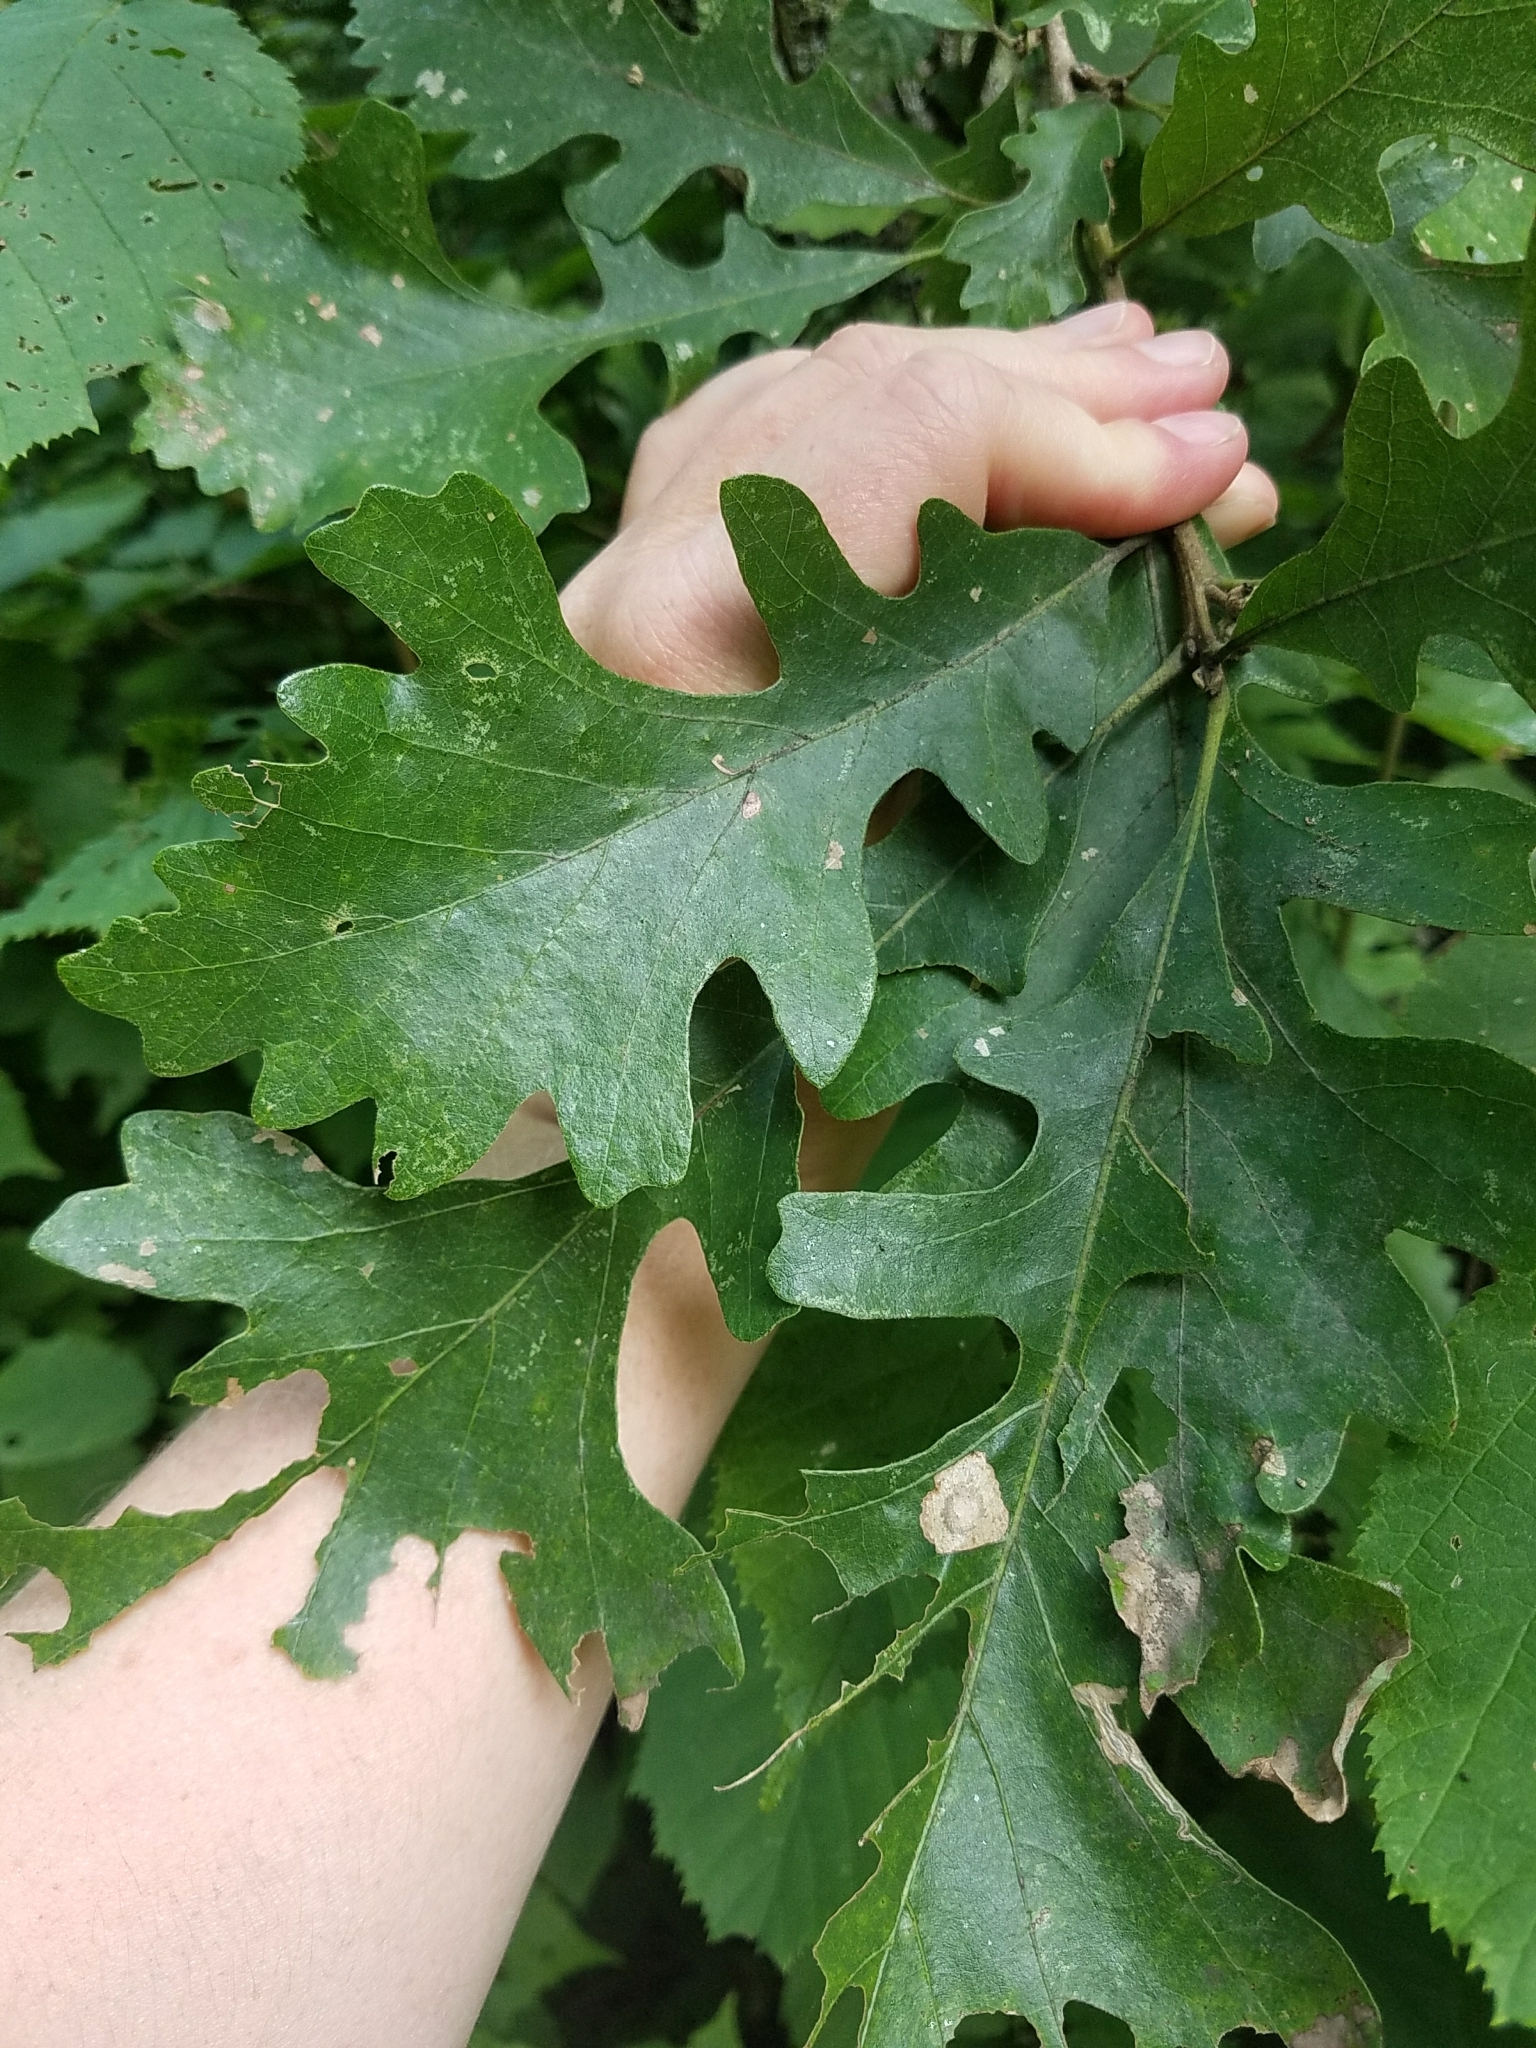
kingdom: Plantae
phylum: Tracheophyta
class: Magnoliopsida
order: Fagales
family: Fagaceae
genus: Quercus
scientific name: Quercus macrocarpa
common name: Bur oak
